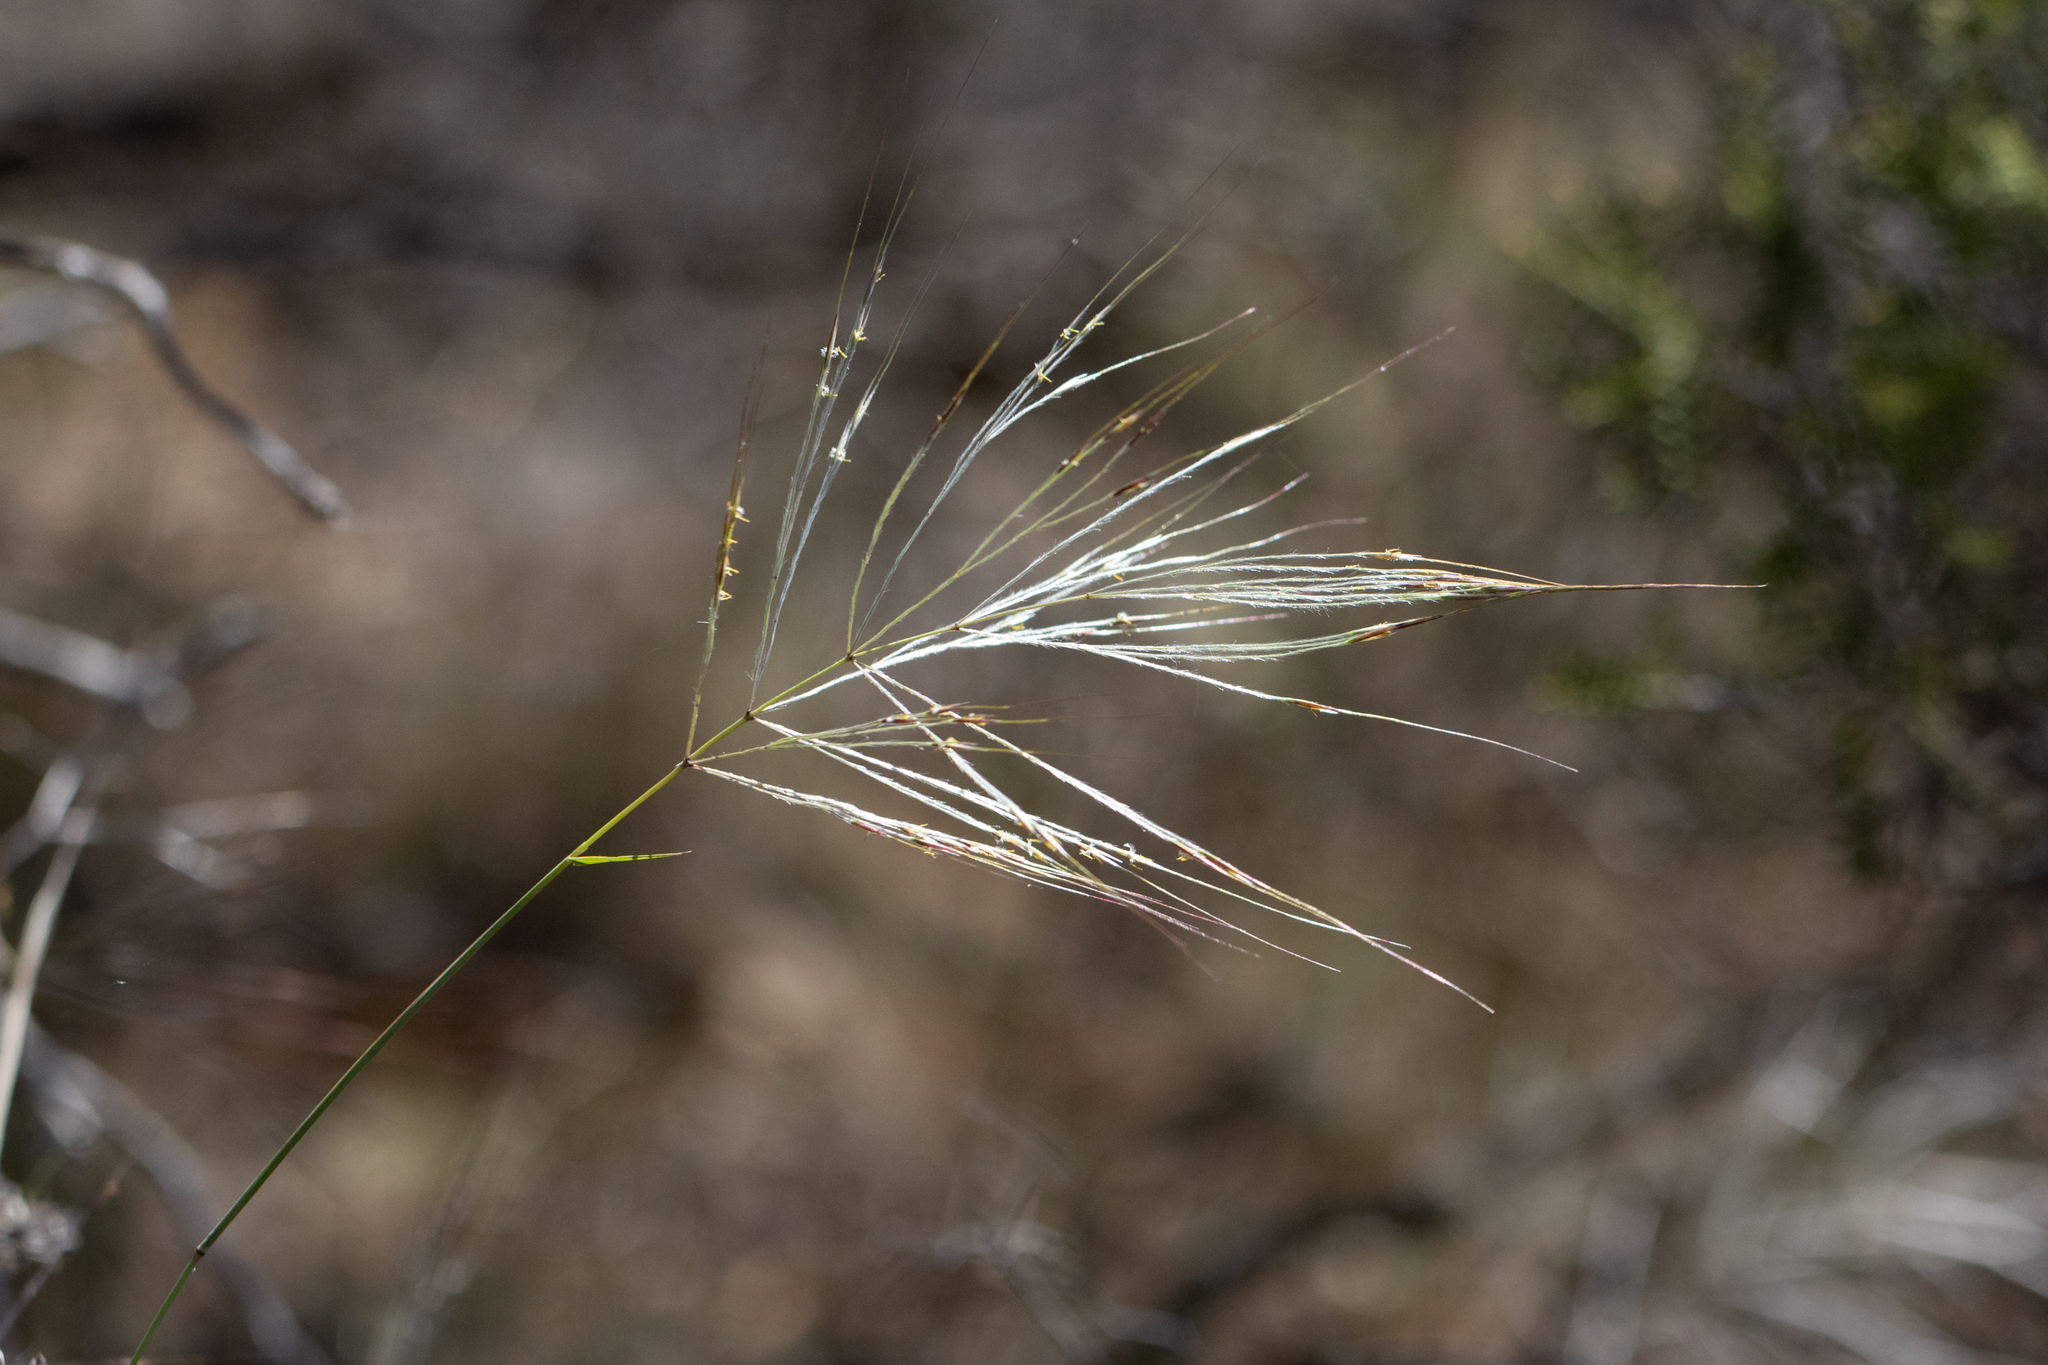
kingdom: Plantae
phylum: Tracheophyta
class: Liliopsida
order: Poales
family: Poaceae
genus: Austrostipa
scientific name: Austrostipa elegantissima
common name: Feather spear grass
